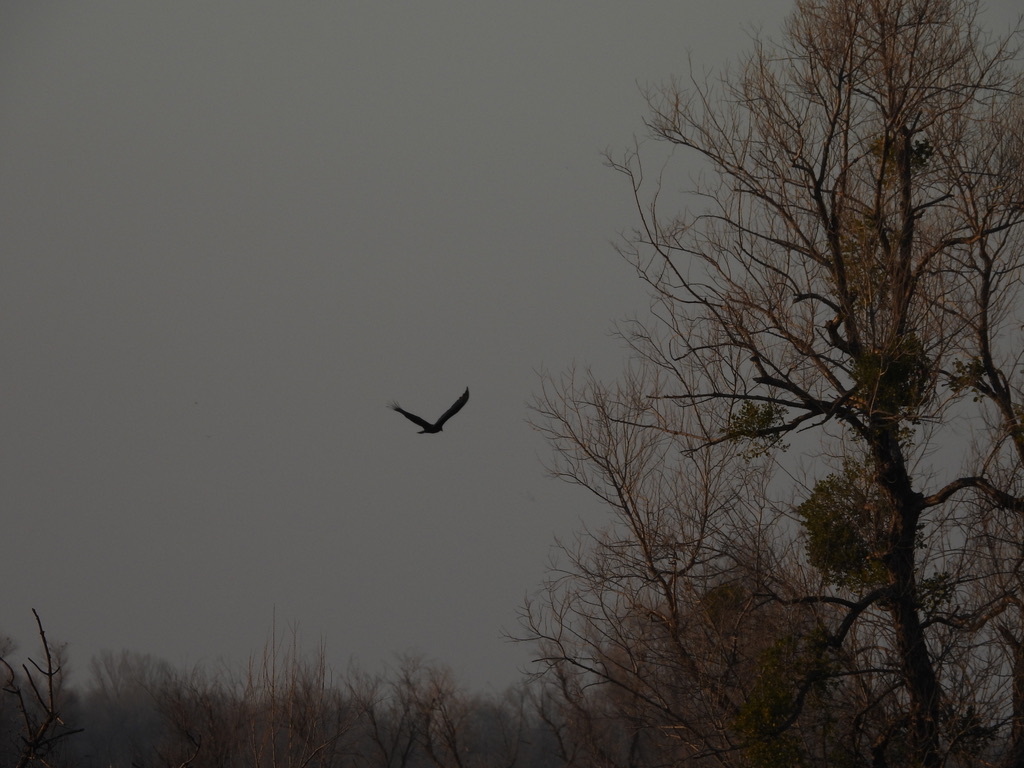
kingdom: Animalia
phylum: Chordata
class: Aves
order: Accipitriformes
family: Cathartidae
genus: Cathartes
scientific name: Cathartes aura
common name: Turkey vulture
